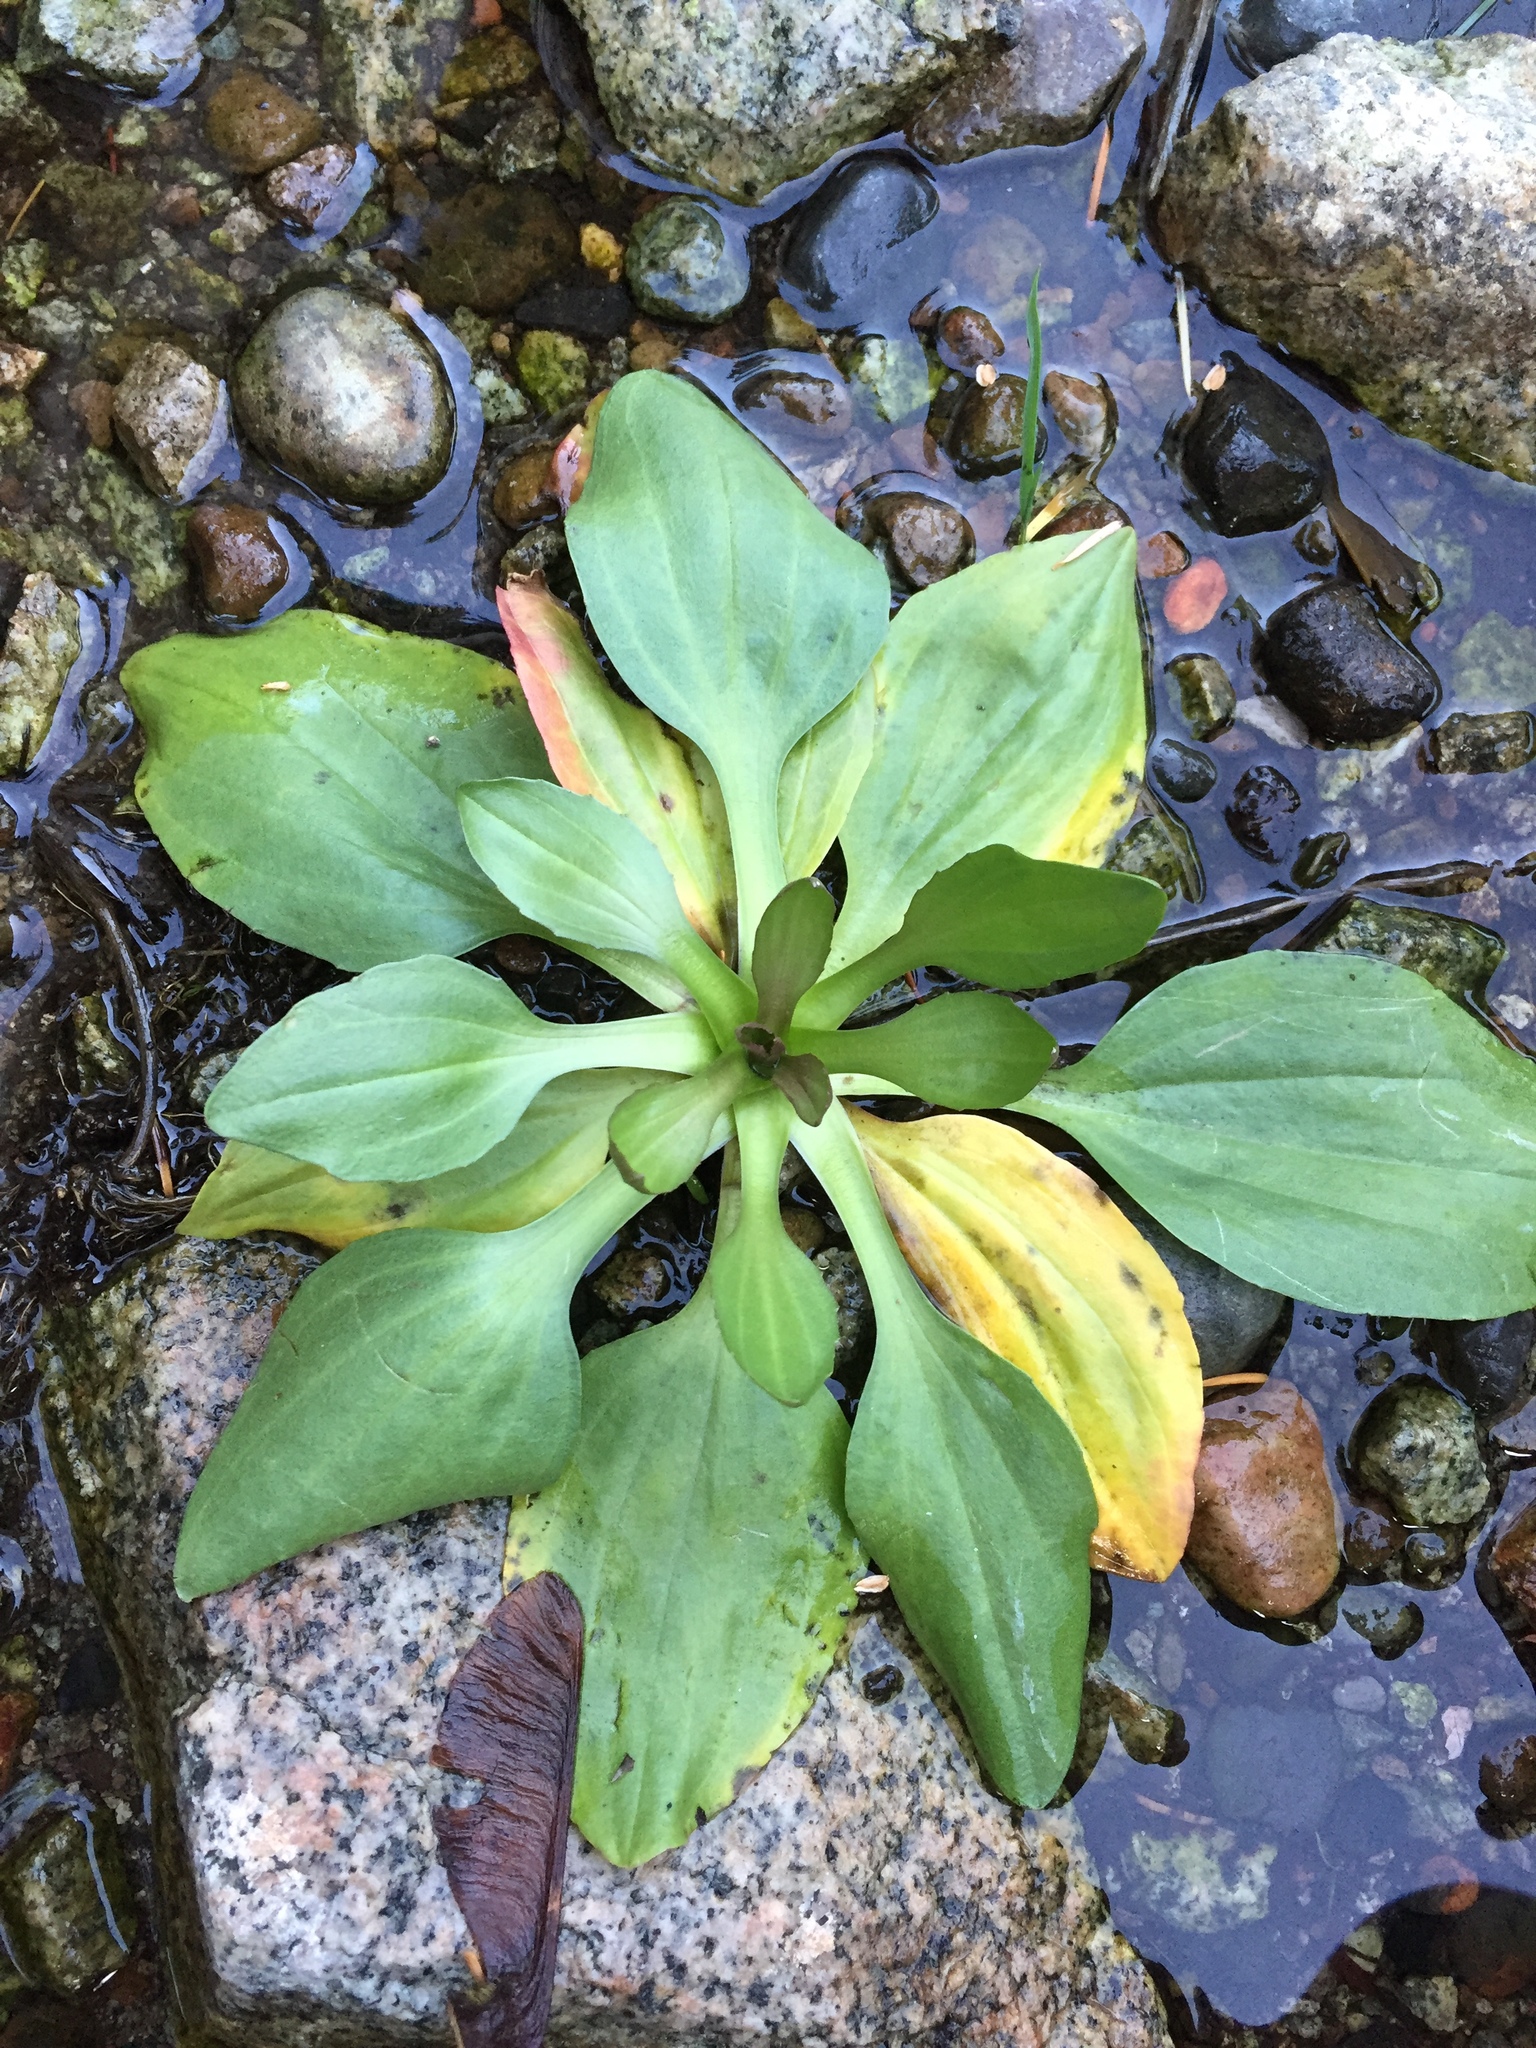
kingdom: Plantae
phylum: Tracheophyta
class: Magnoliopsida
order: Lamiales
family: Plantaginaceae
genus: Plantago
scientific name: Plantago major
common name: Common plantain
